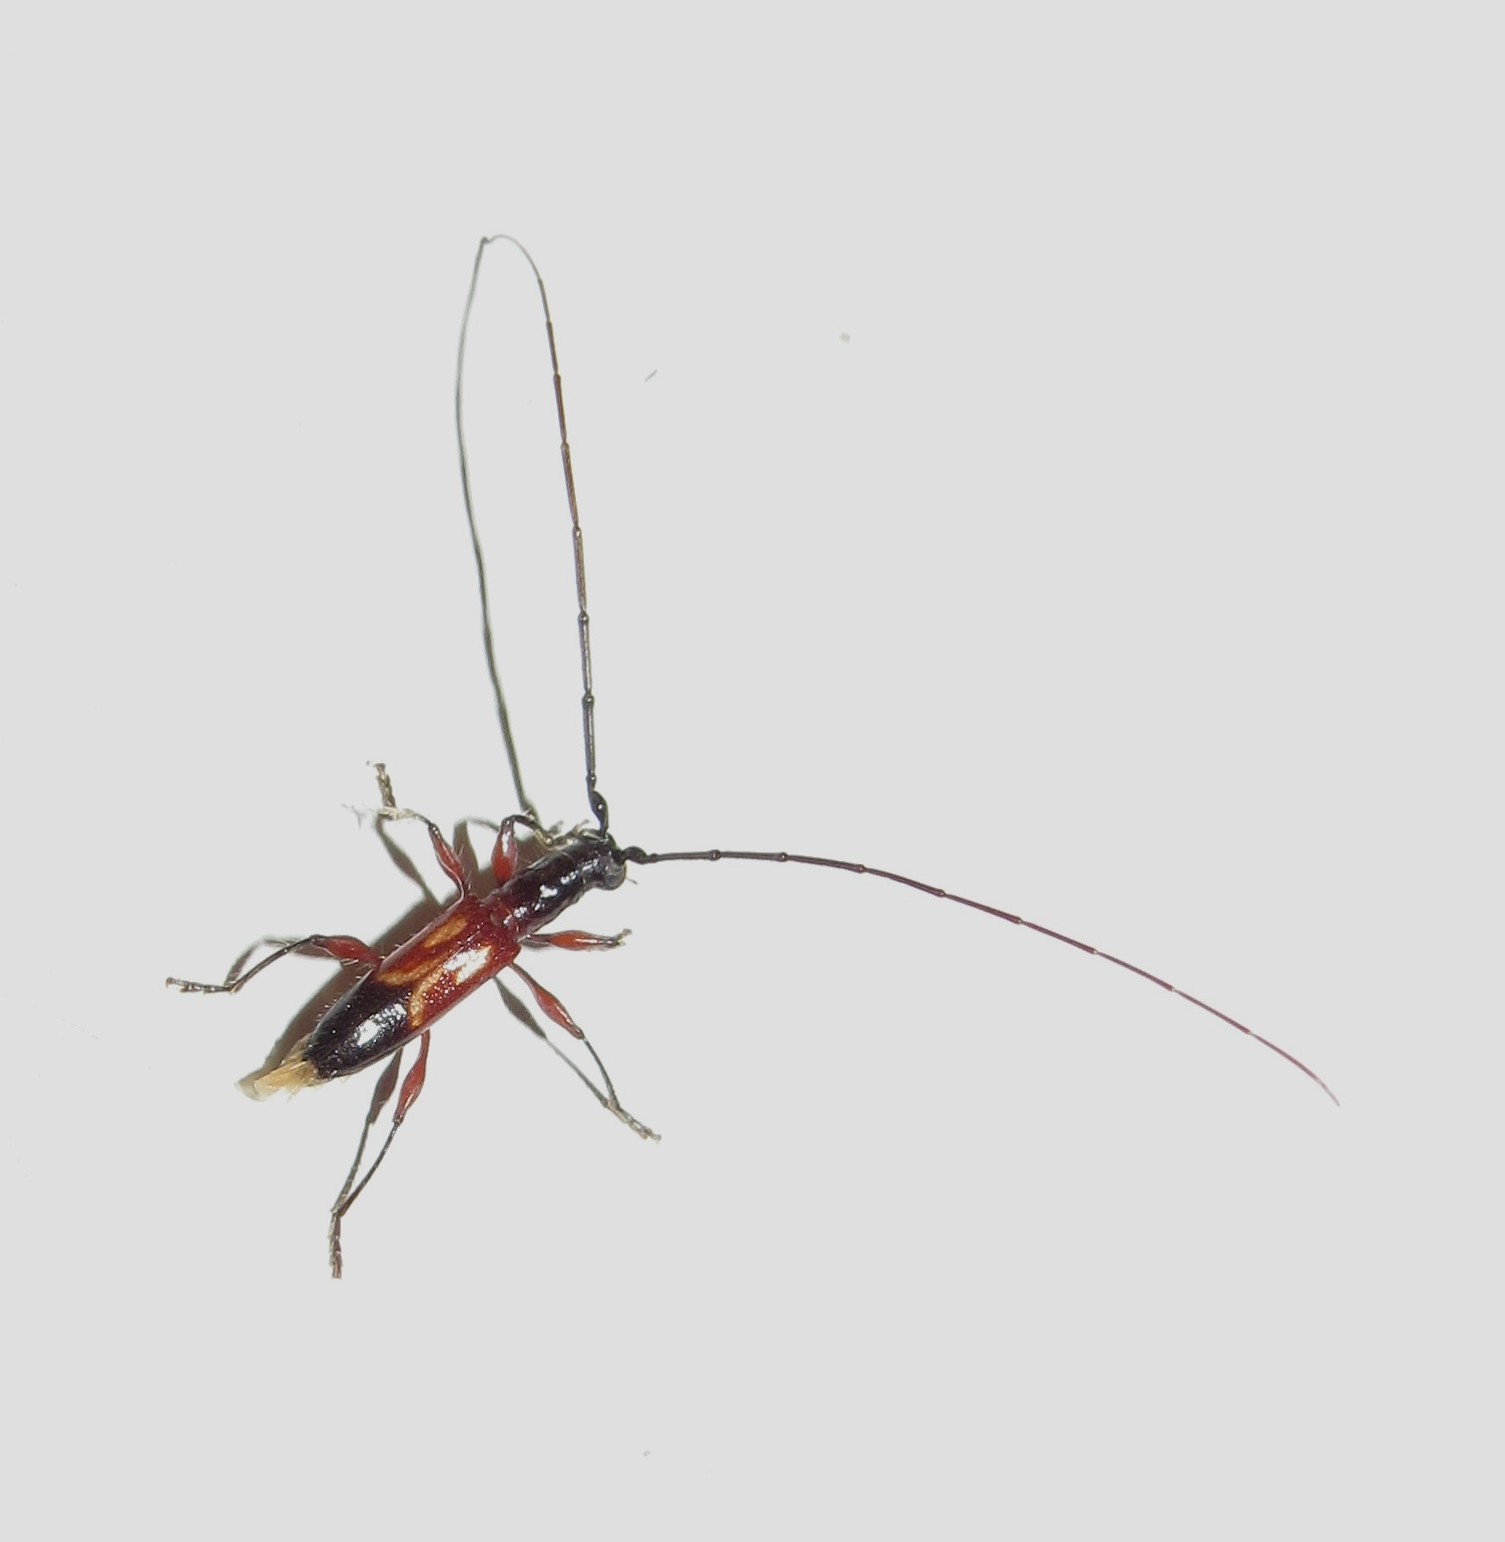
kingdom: Animalia
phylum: Arthropoda
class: Insecta
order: Coleoptera
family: Cerambycidae
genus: Hexoplon
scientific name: Hexoplon speciosum
